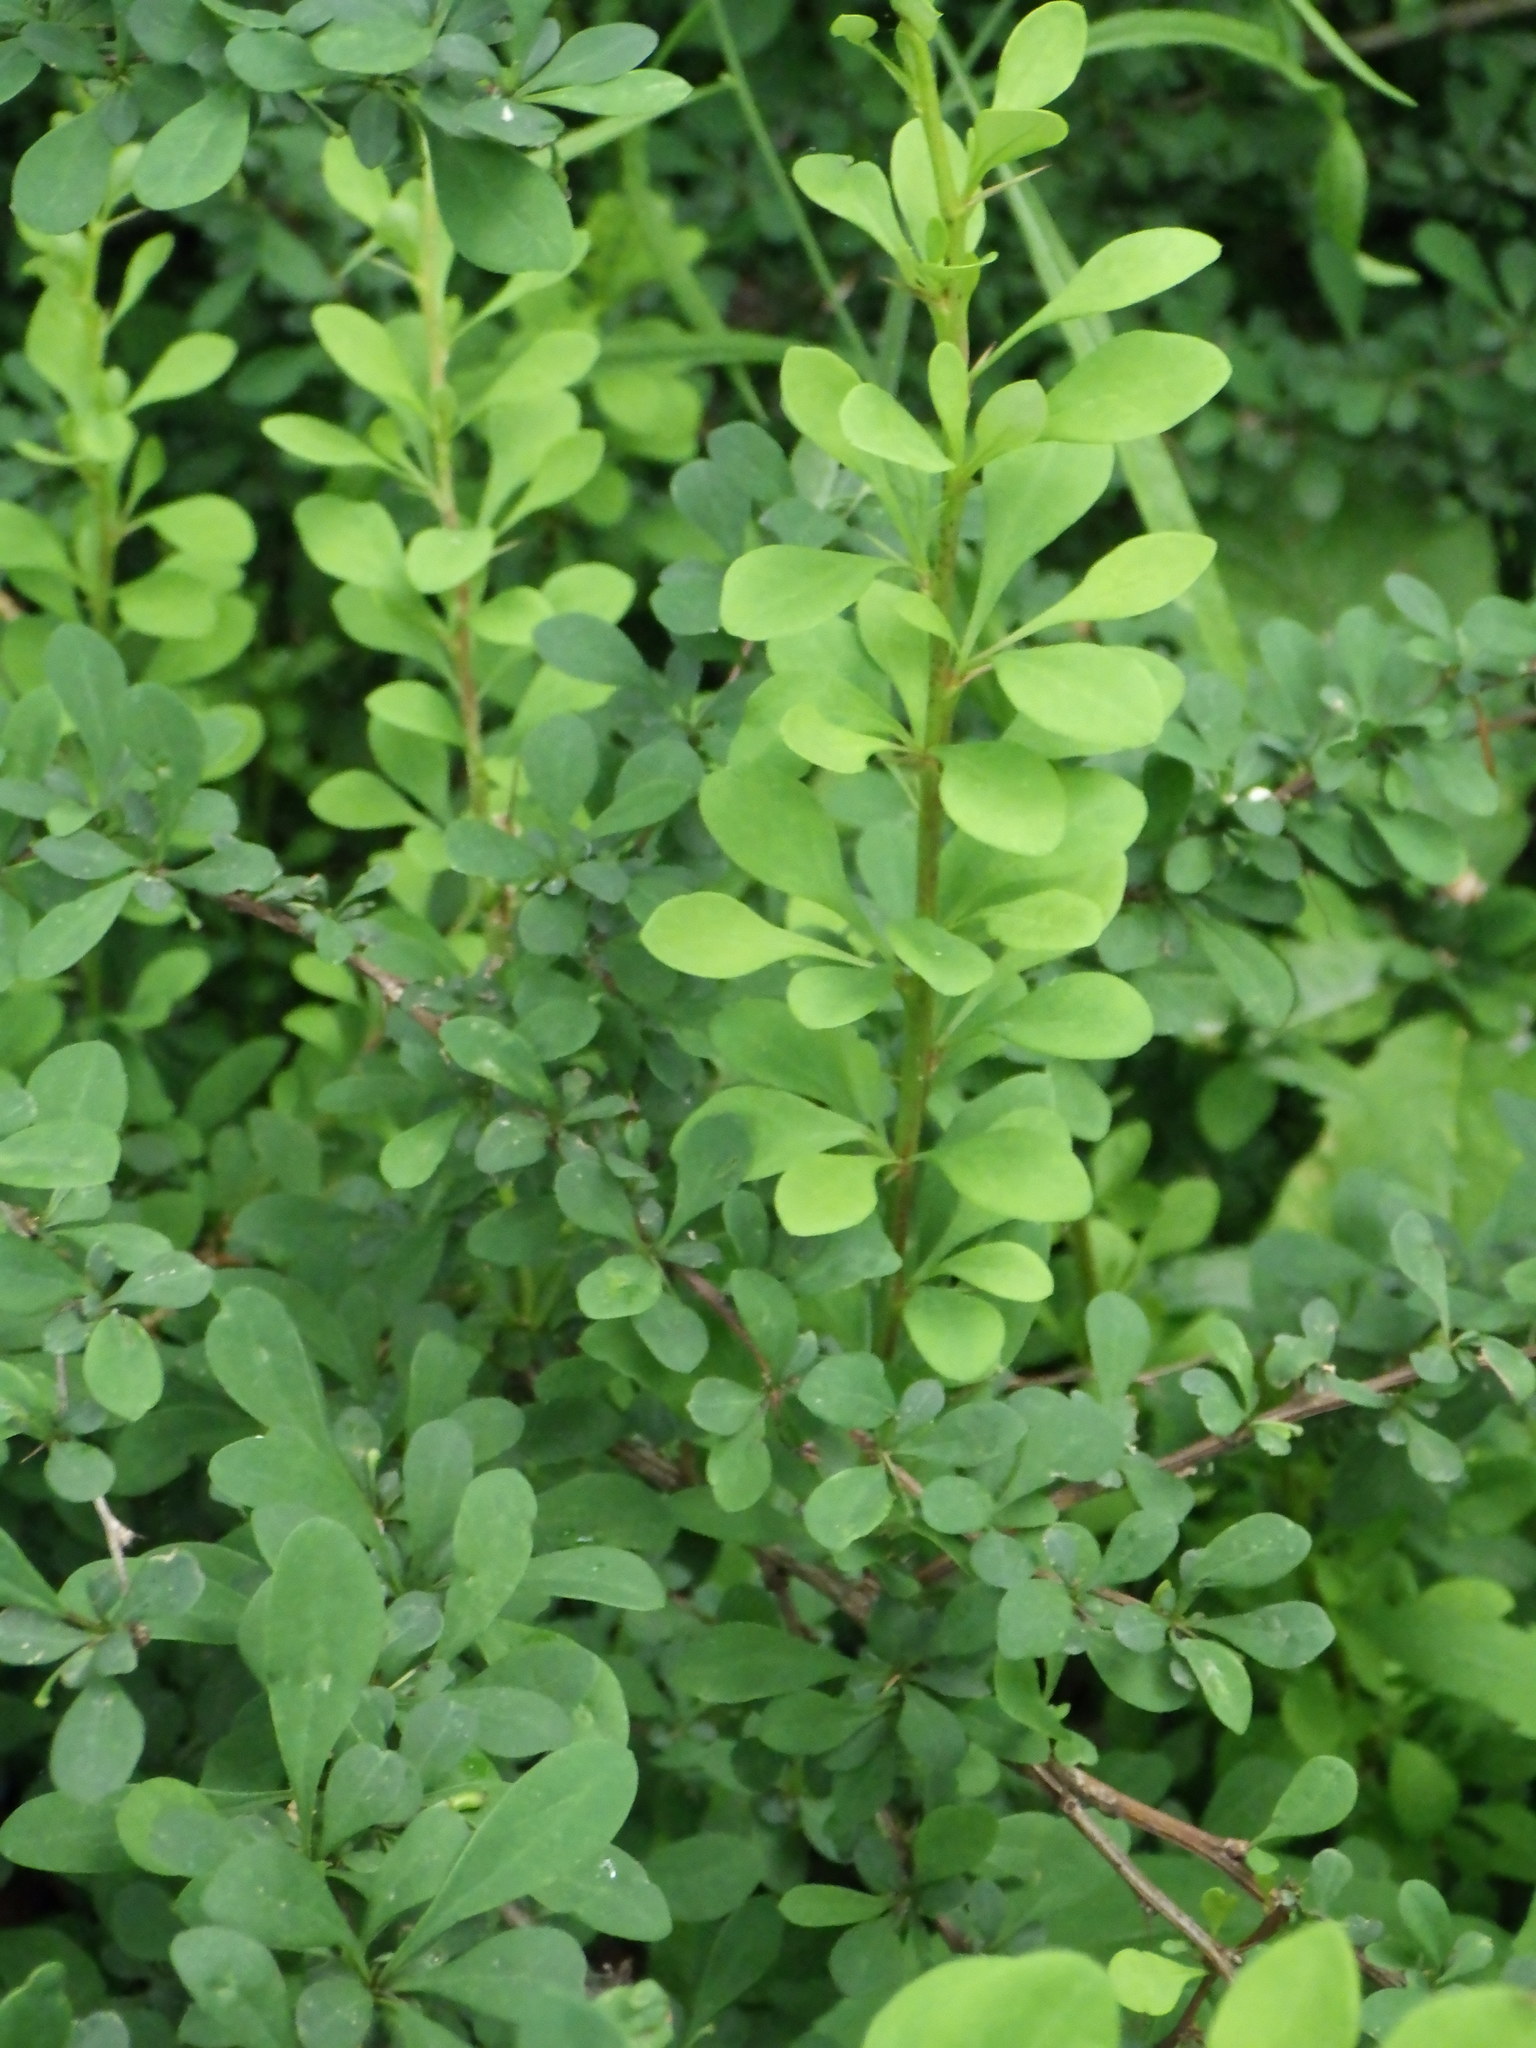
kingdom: Plantae
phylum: Tracheophyta
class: Magnoliopsida
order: Ranunculales
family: Berberidaceae
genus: Berberis
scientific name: Berberis thunbergii
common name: Japanese barberry
